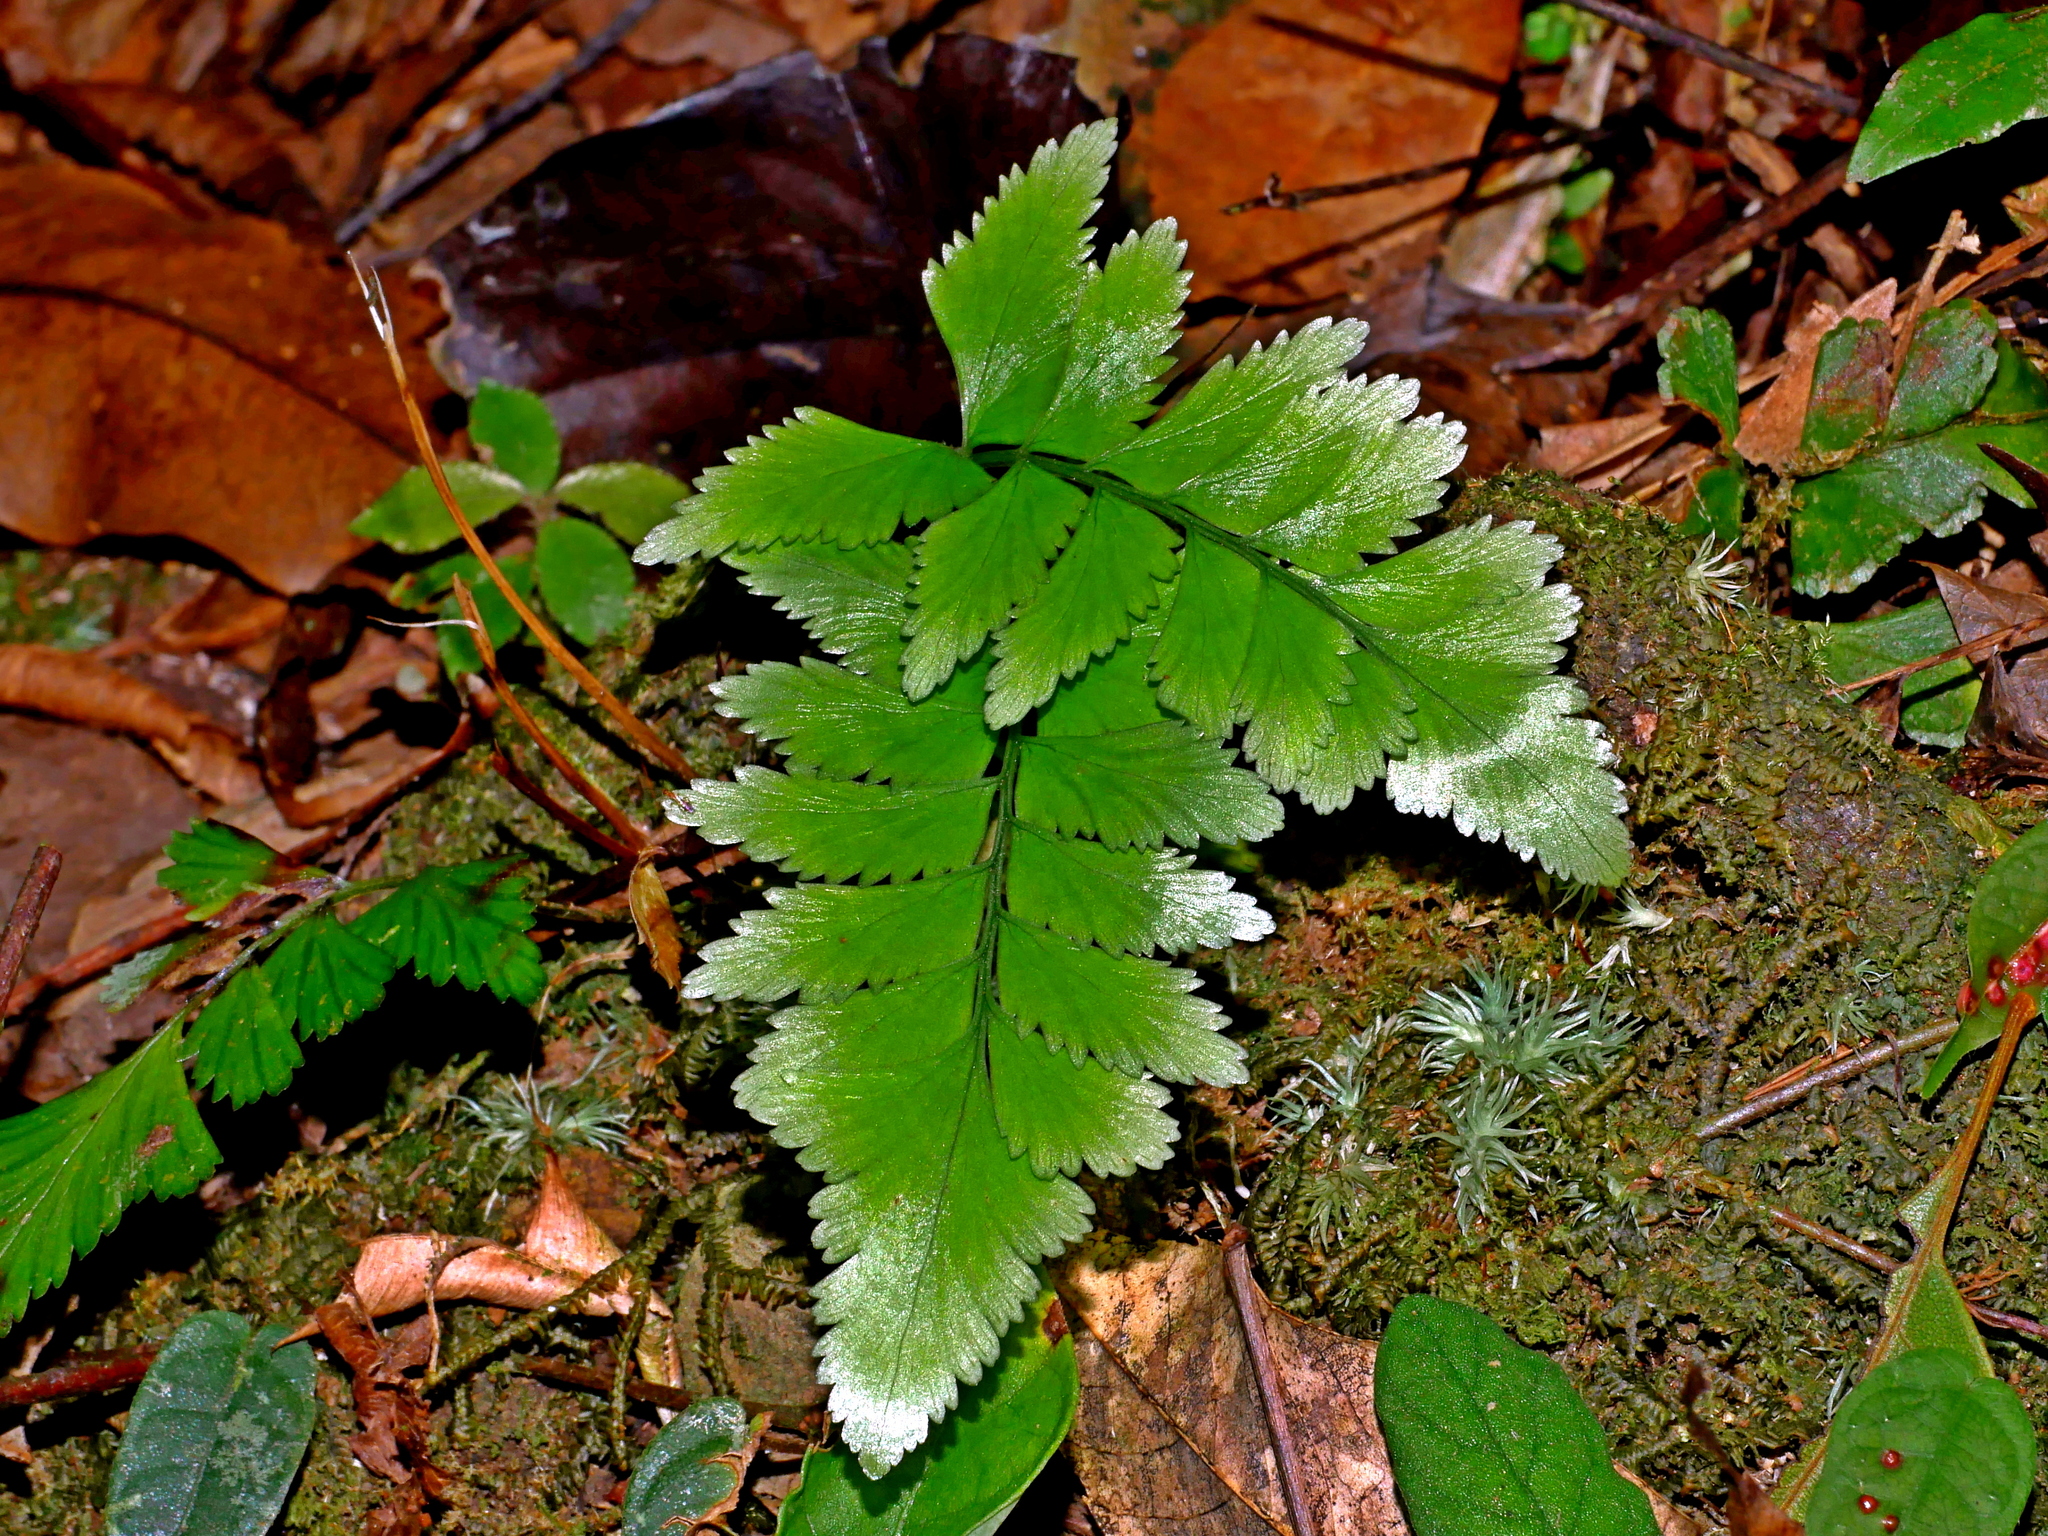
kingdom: Plantae
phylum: Tracheophyta
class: Polypodiopsida
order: Polypodiales
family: Lindsaeaceae
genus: Lindsaea
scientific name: Lindsaea javanensis
